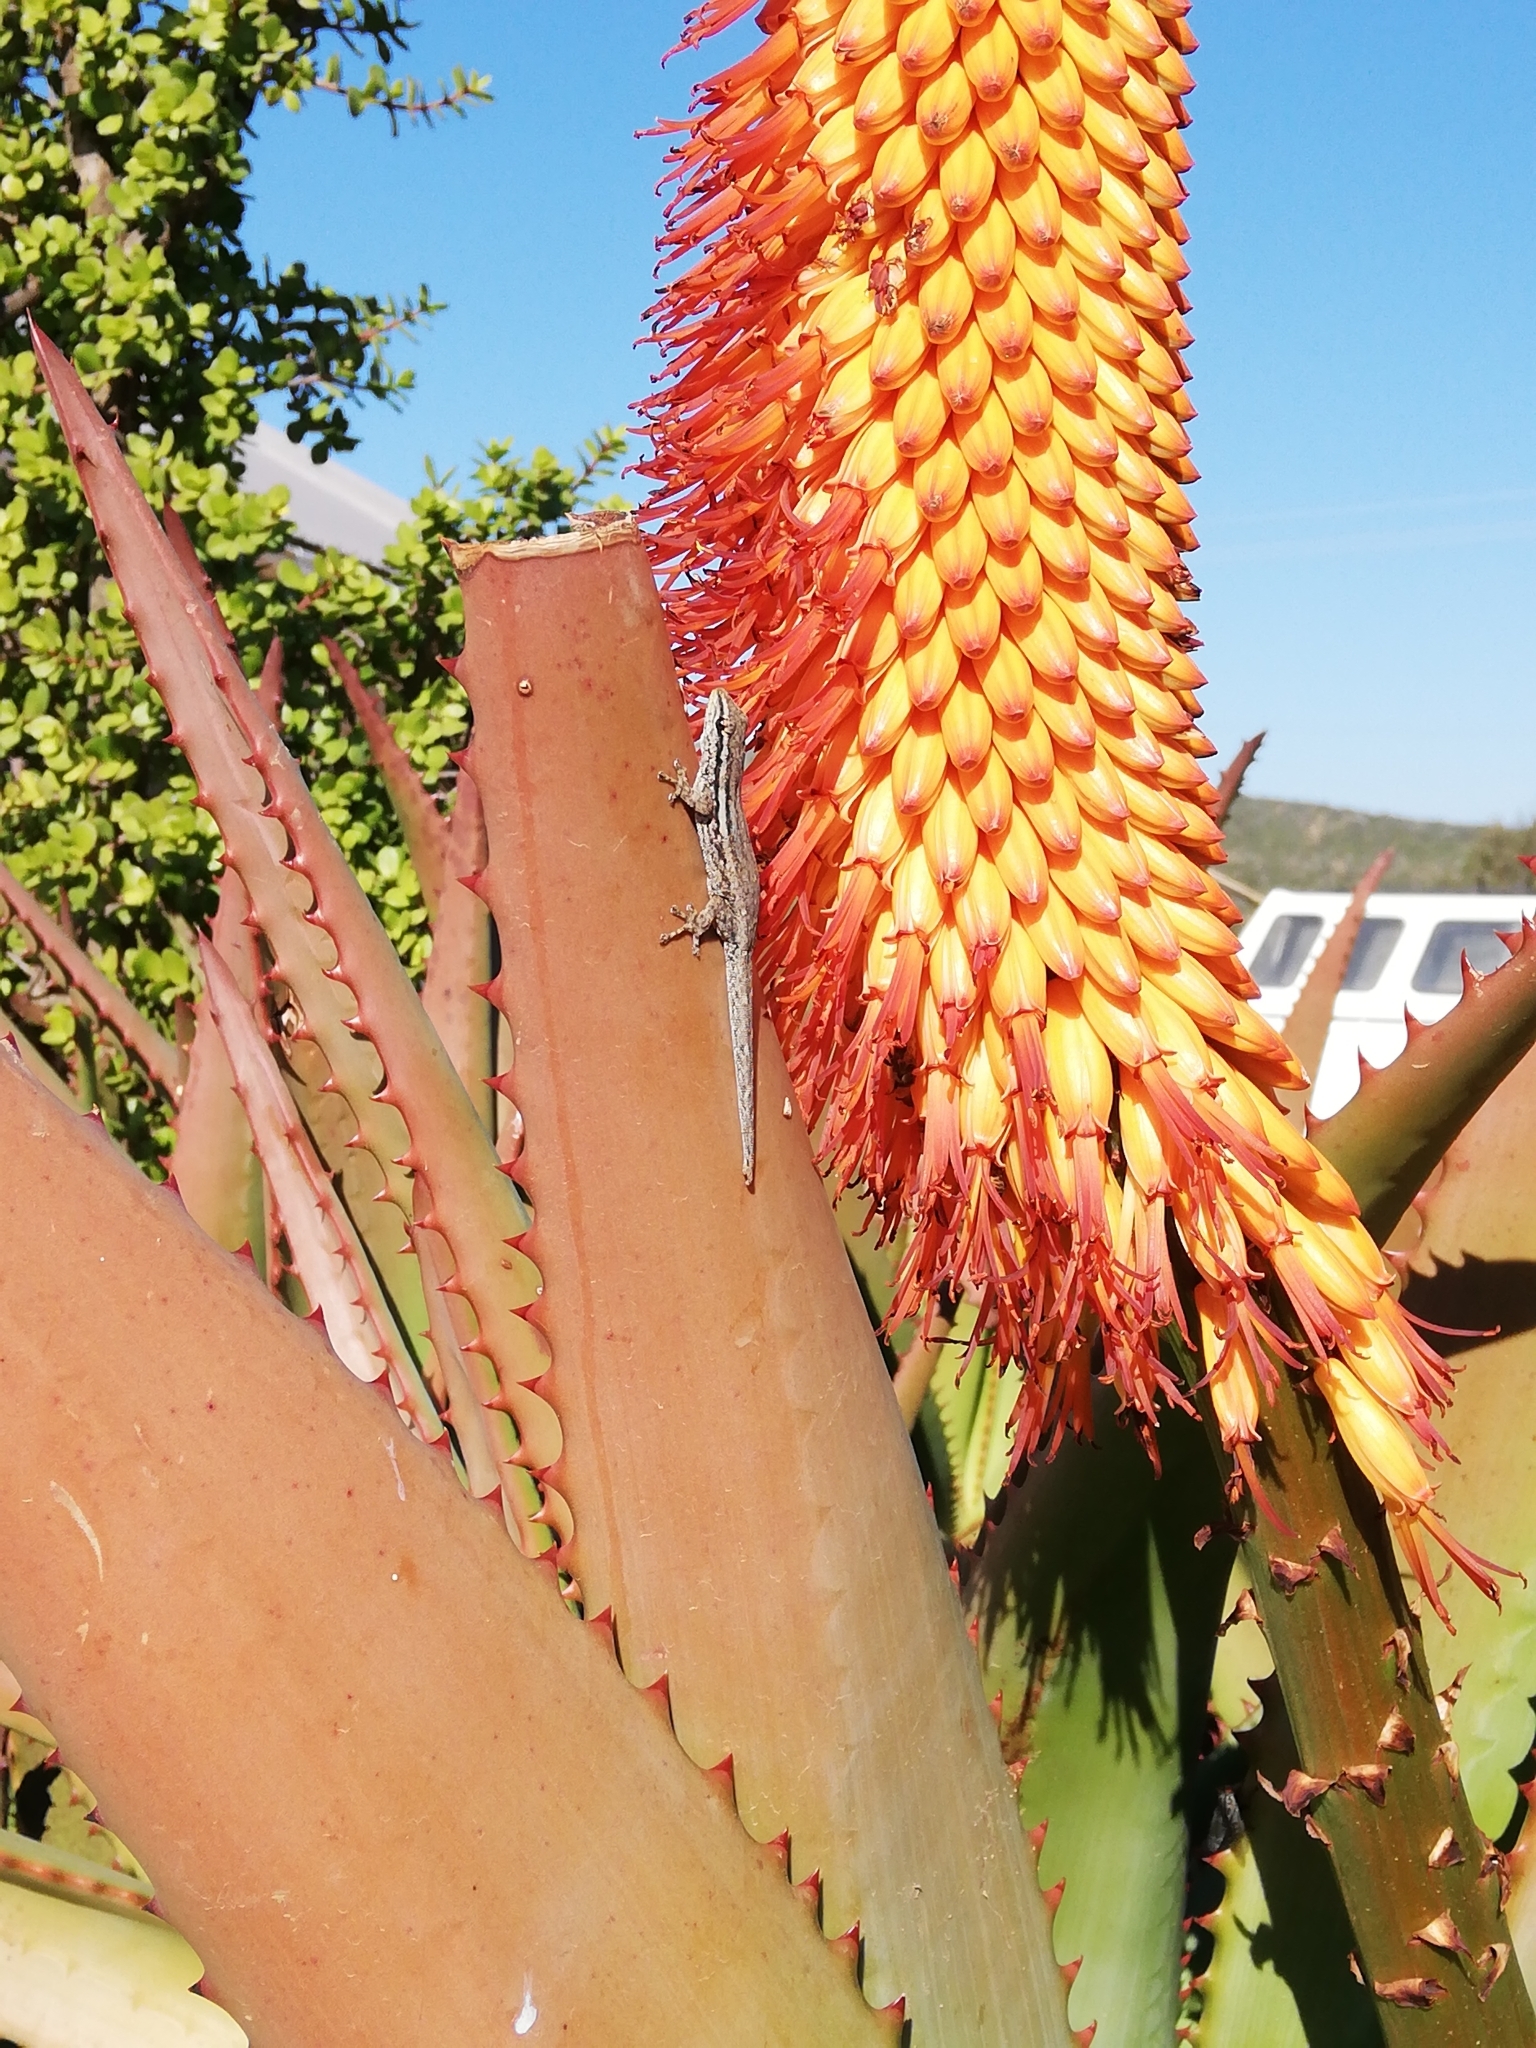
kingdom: Animalia
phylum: Chordata
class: Squamata
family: Gekkonidae
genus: Lygodactylus
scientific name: Lygodactylus capensis
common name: Cape dwarf gecko
